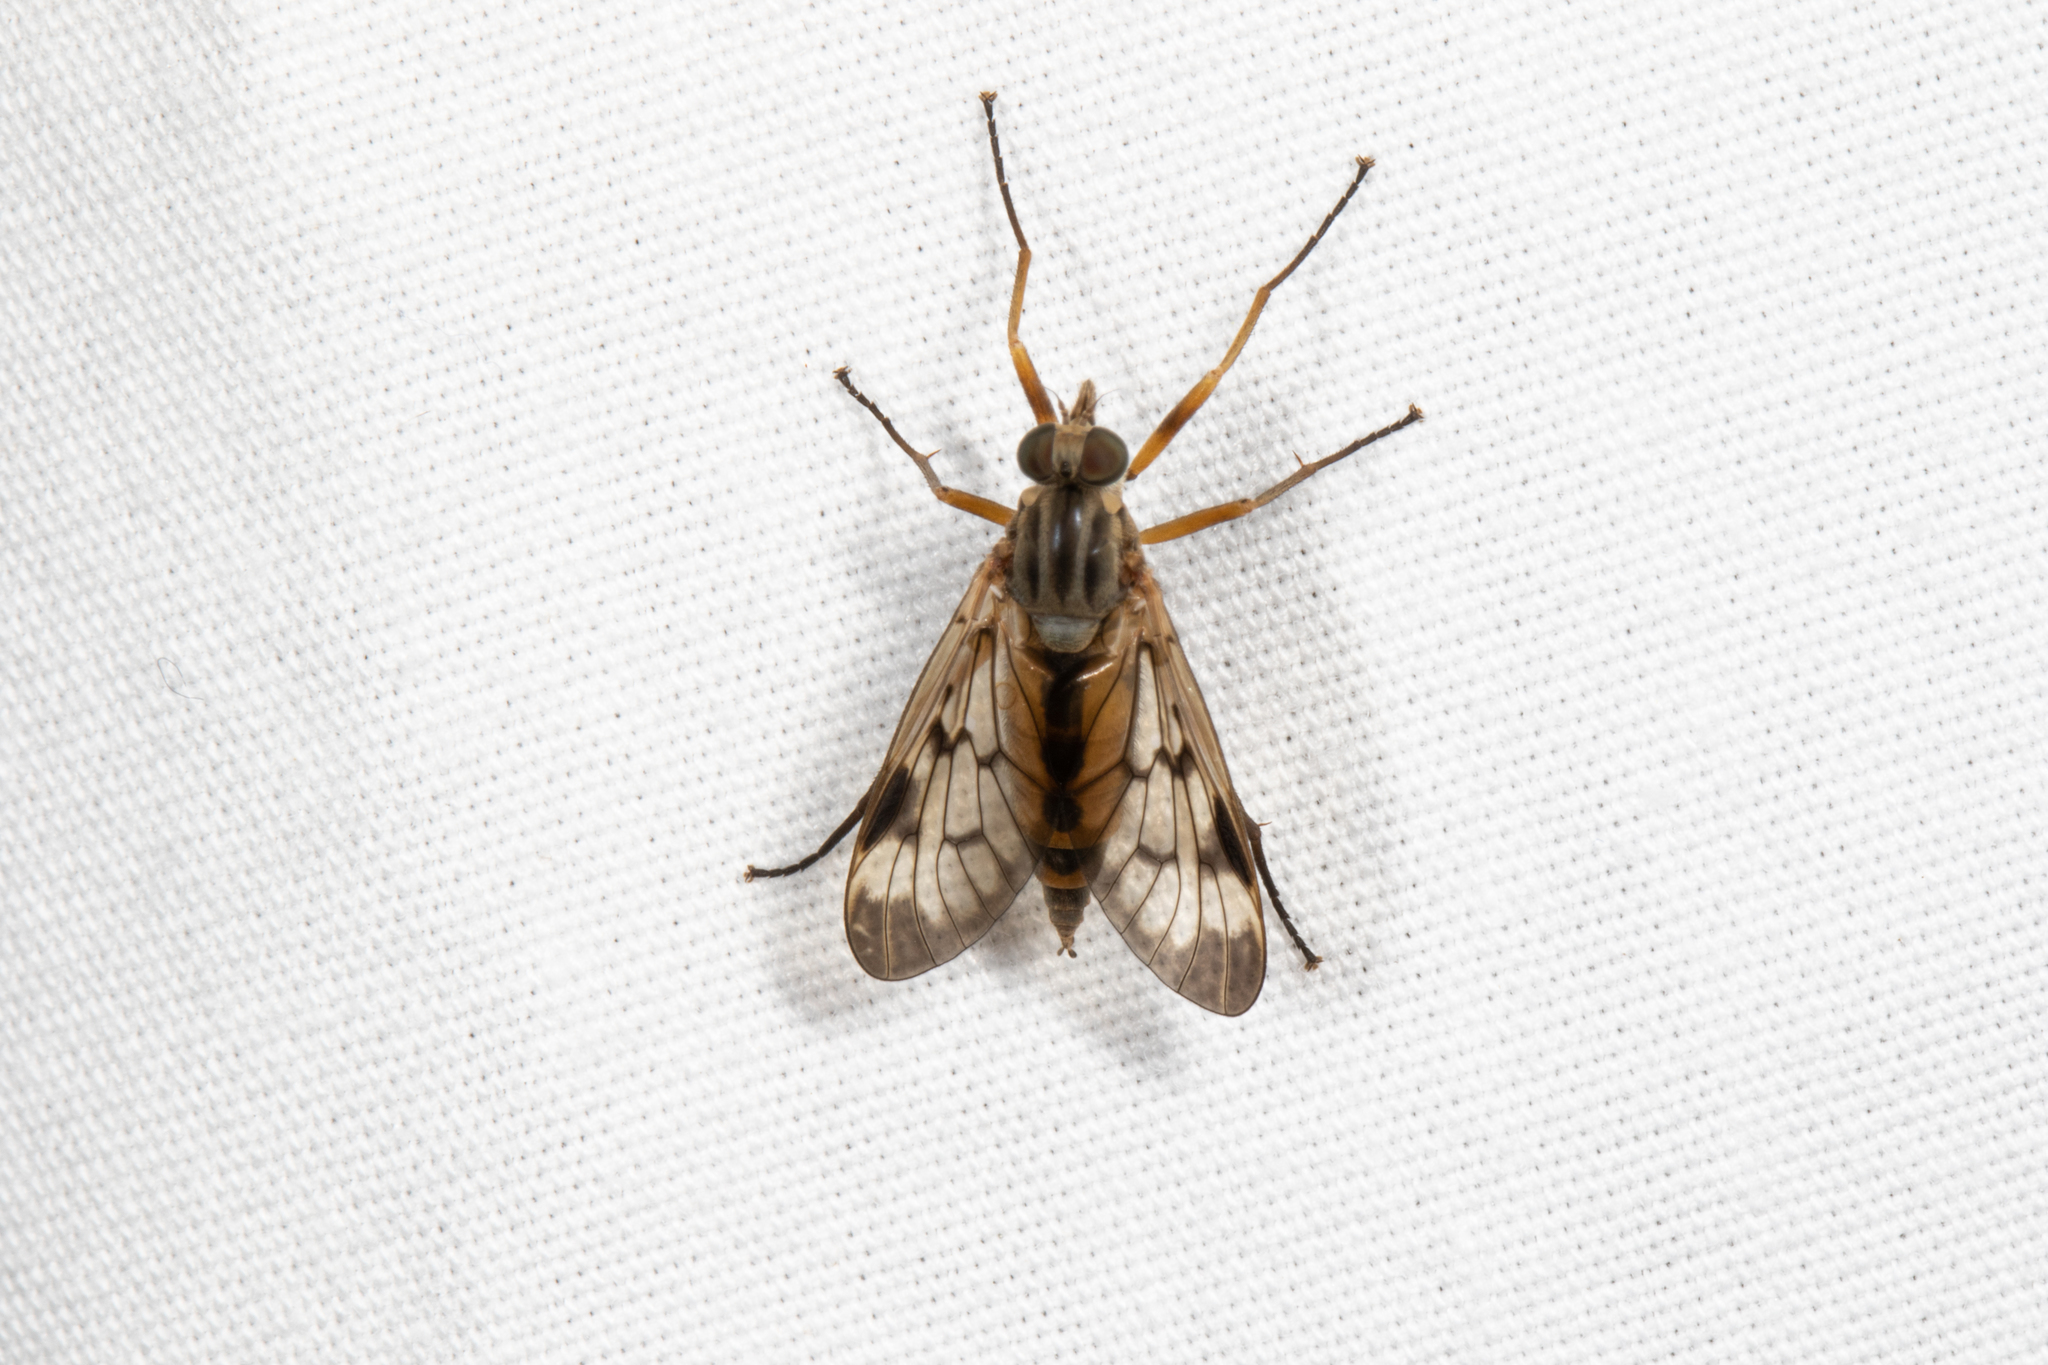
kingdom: Animalia
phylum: Arthropoda
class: Insecta
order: Diptera
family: Rhagionidae
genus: Rhagio
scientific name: Rhagio scolopacea
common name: Downlooker snipefly
